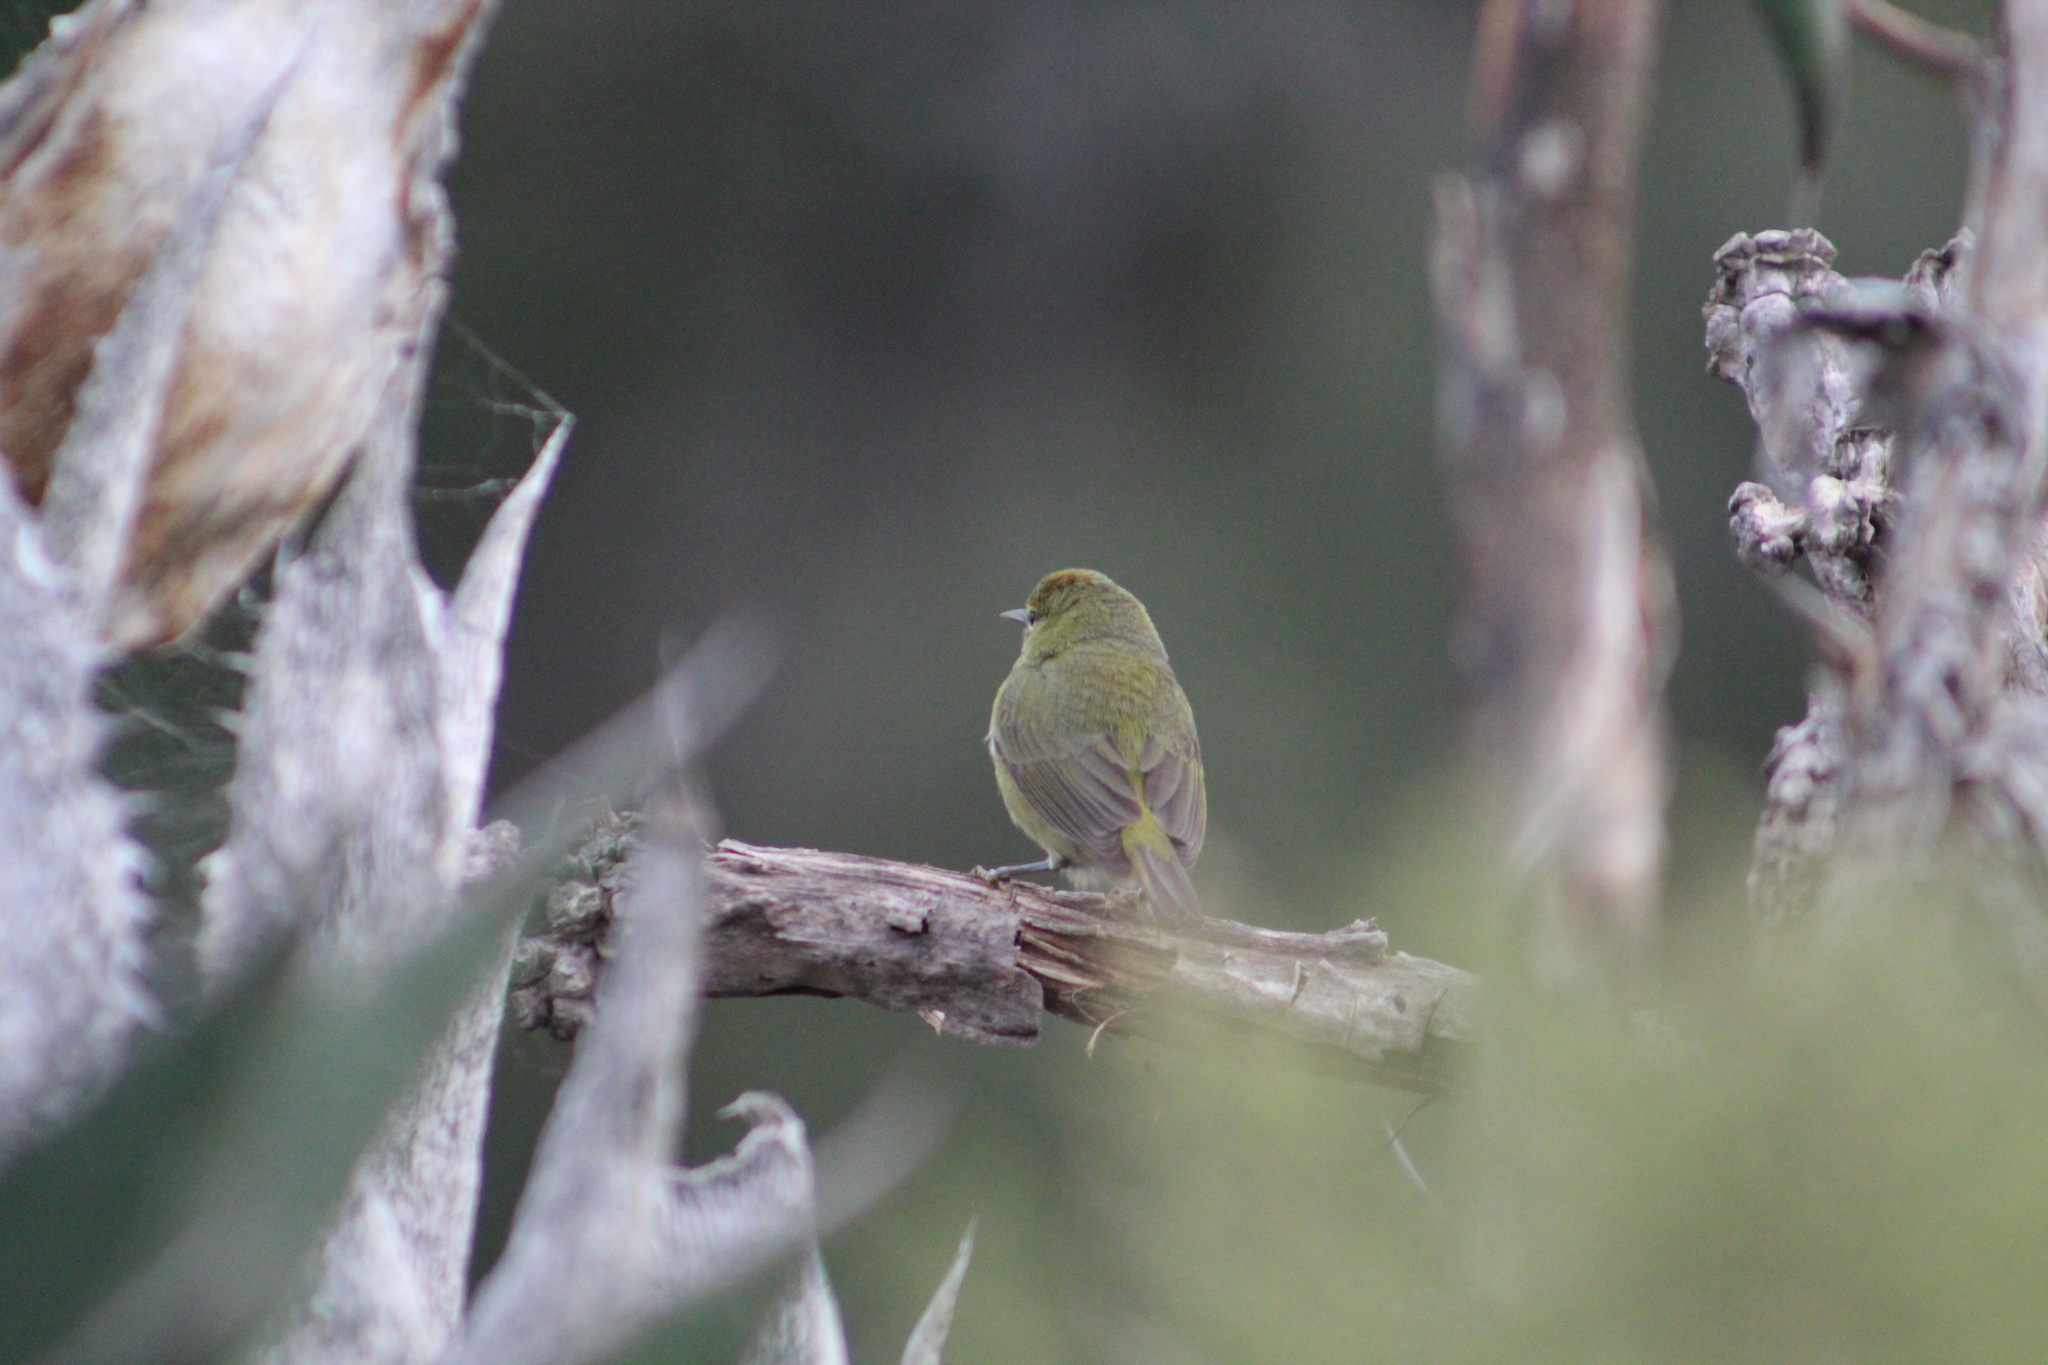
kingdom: Animalia
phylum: Chordata
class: Aves
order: Passeriformes
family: Parulidae
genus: Leiothlypis
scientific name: Leiothlypis celata
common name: Orange-crowned warbler
